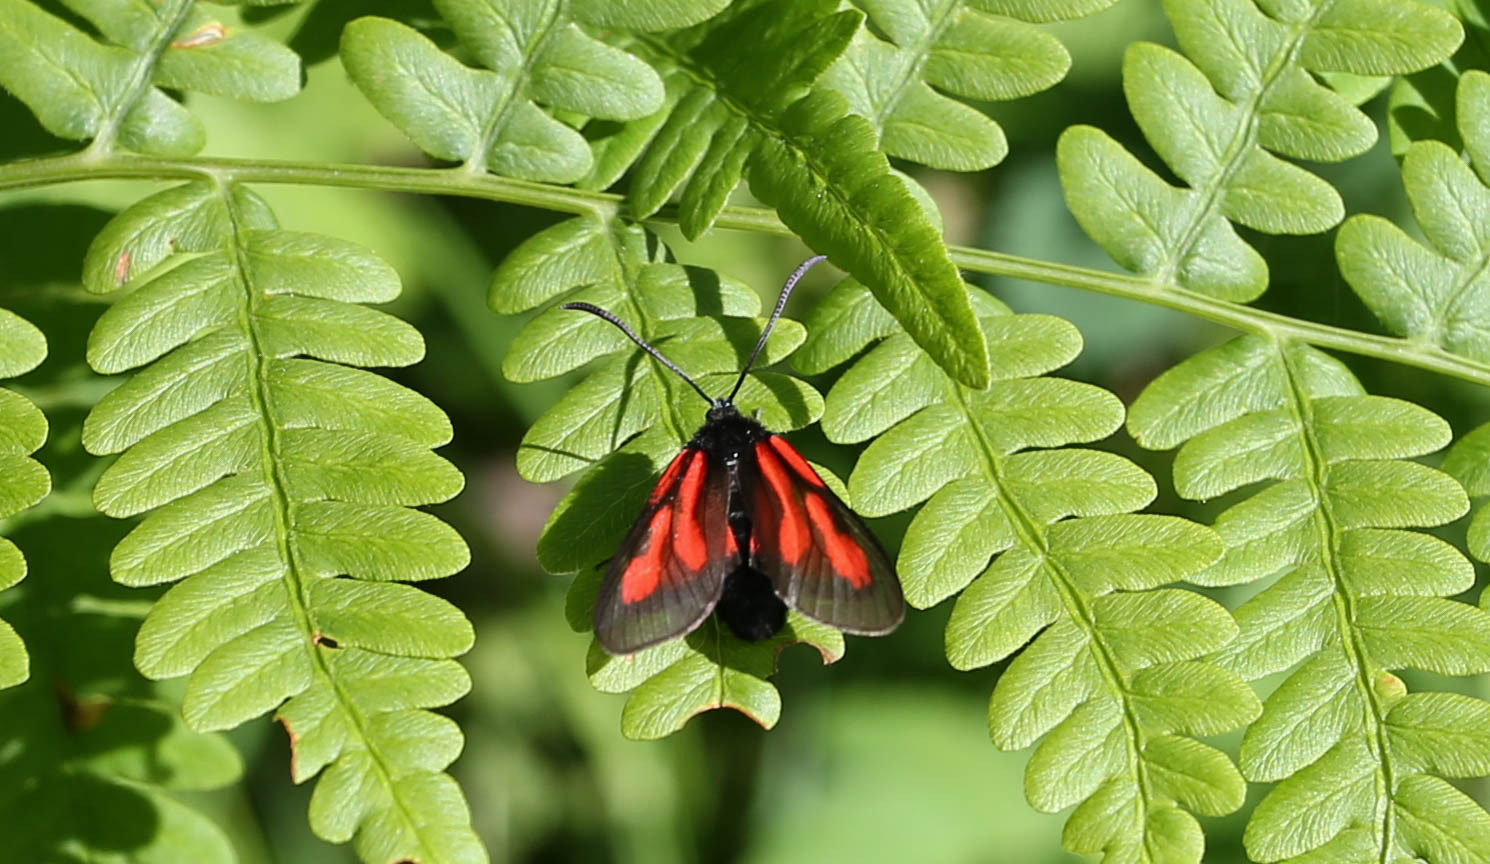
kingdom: Animalia
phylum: Arthropoda
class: Insecta
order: Lepidoptera
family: Zygaenidae
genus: Zygaena
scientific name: Zygaena osterodensis
